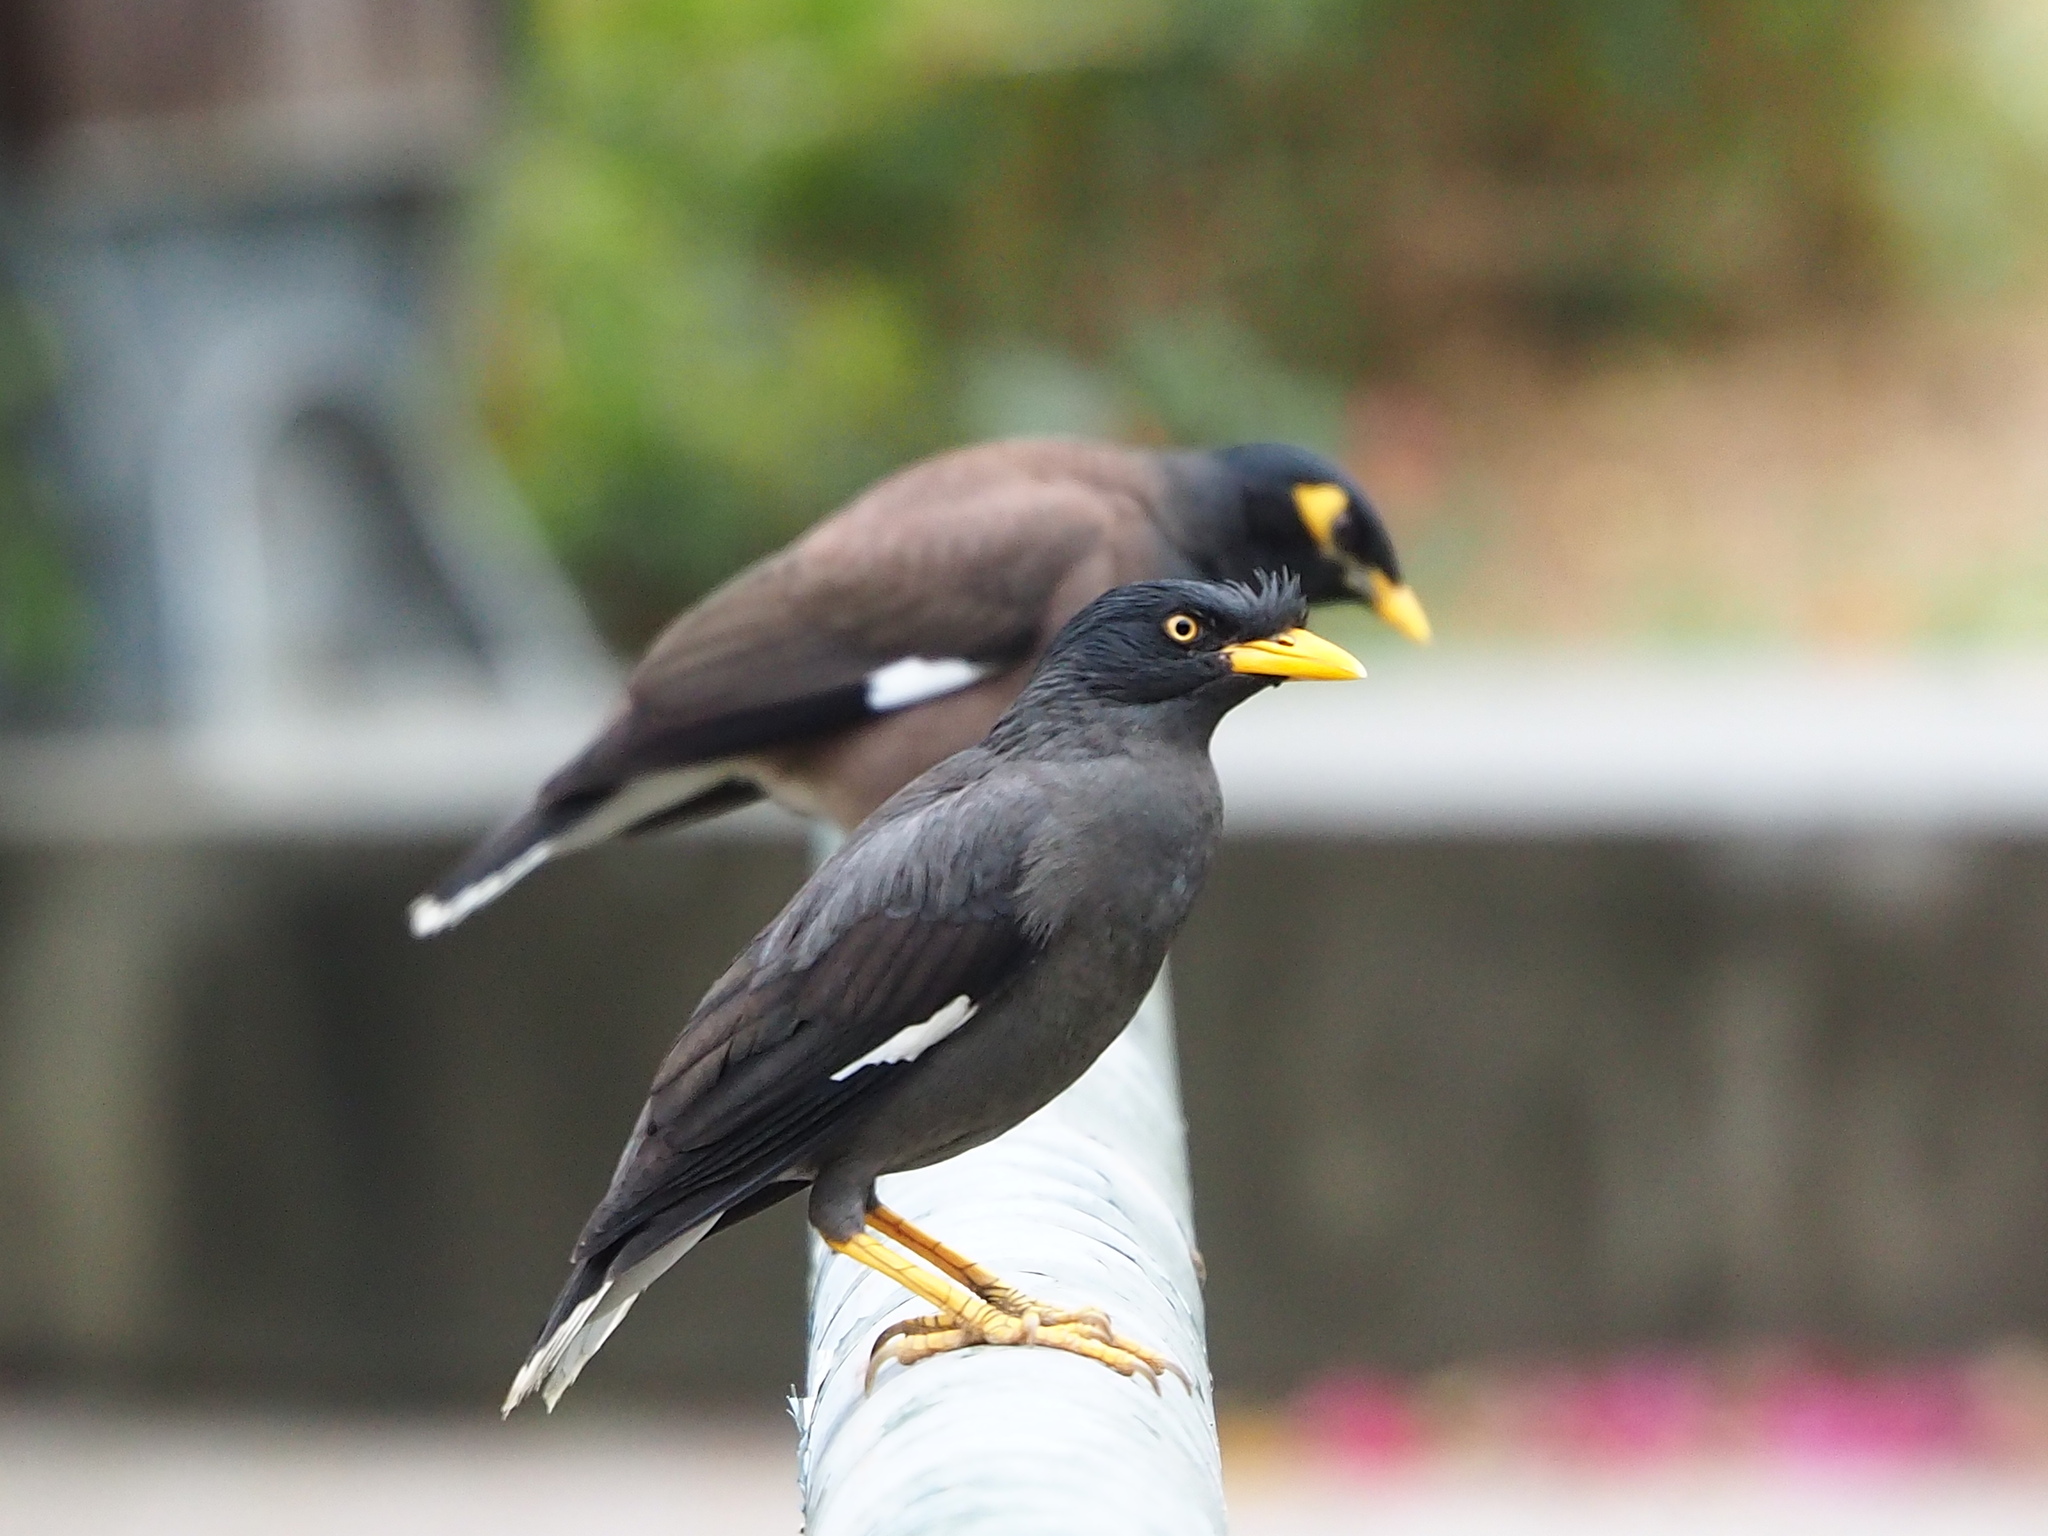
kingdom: Animalia
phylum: Chordata
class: Aves
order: Passeriformes
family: Sturnidae
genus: Acridotheres
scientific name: Acridotheres javanicus
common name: Javan myna
